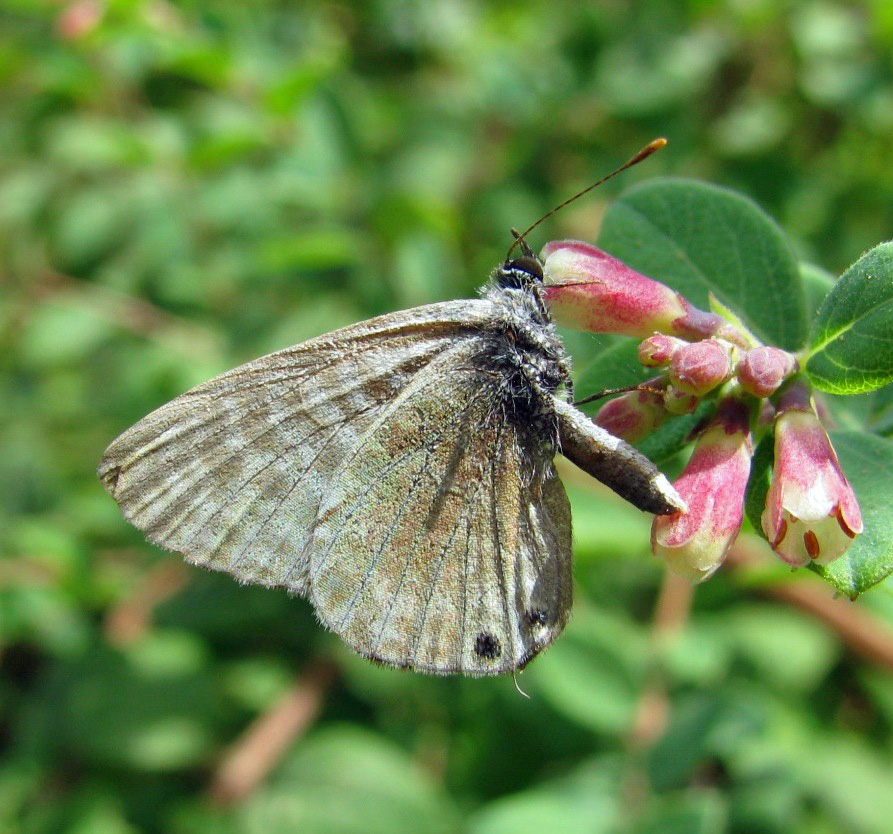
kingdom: Animalia
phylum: Arthropoda
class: Insecta
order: Lepidoptera
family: Lycaenidae
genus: Leptotes
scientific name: Leptotes pirithous
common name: Lang's short-tailed blue
